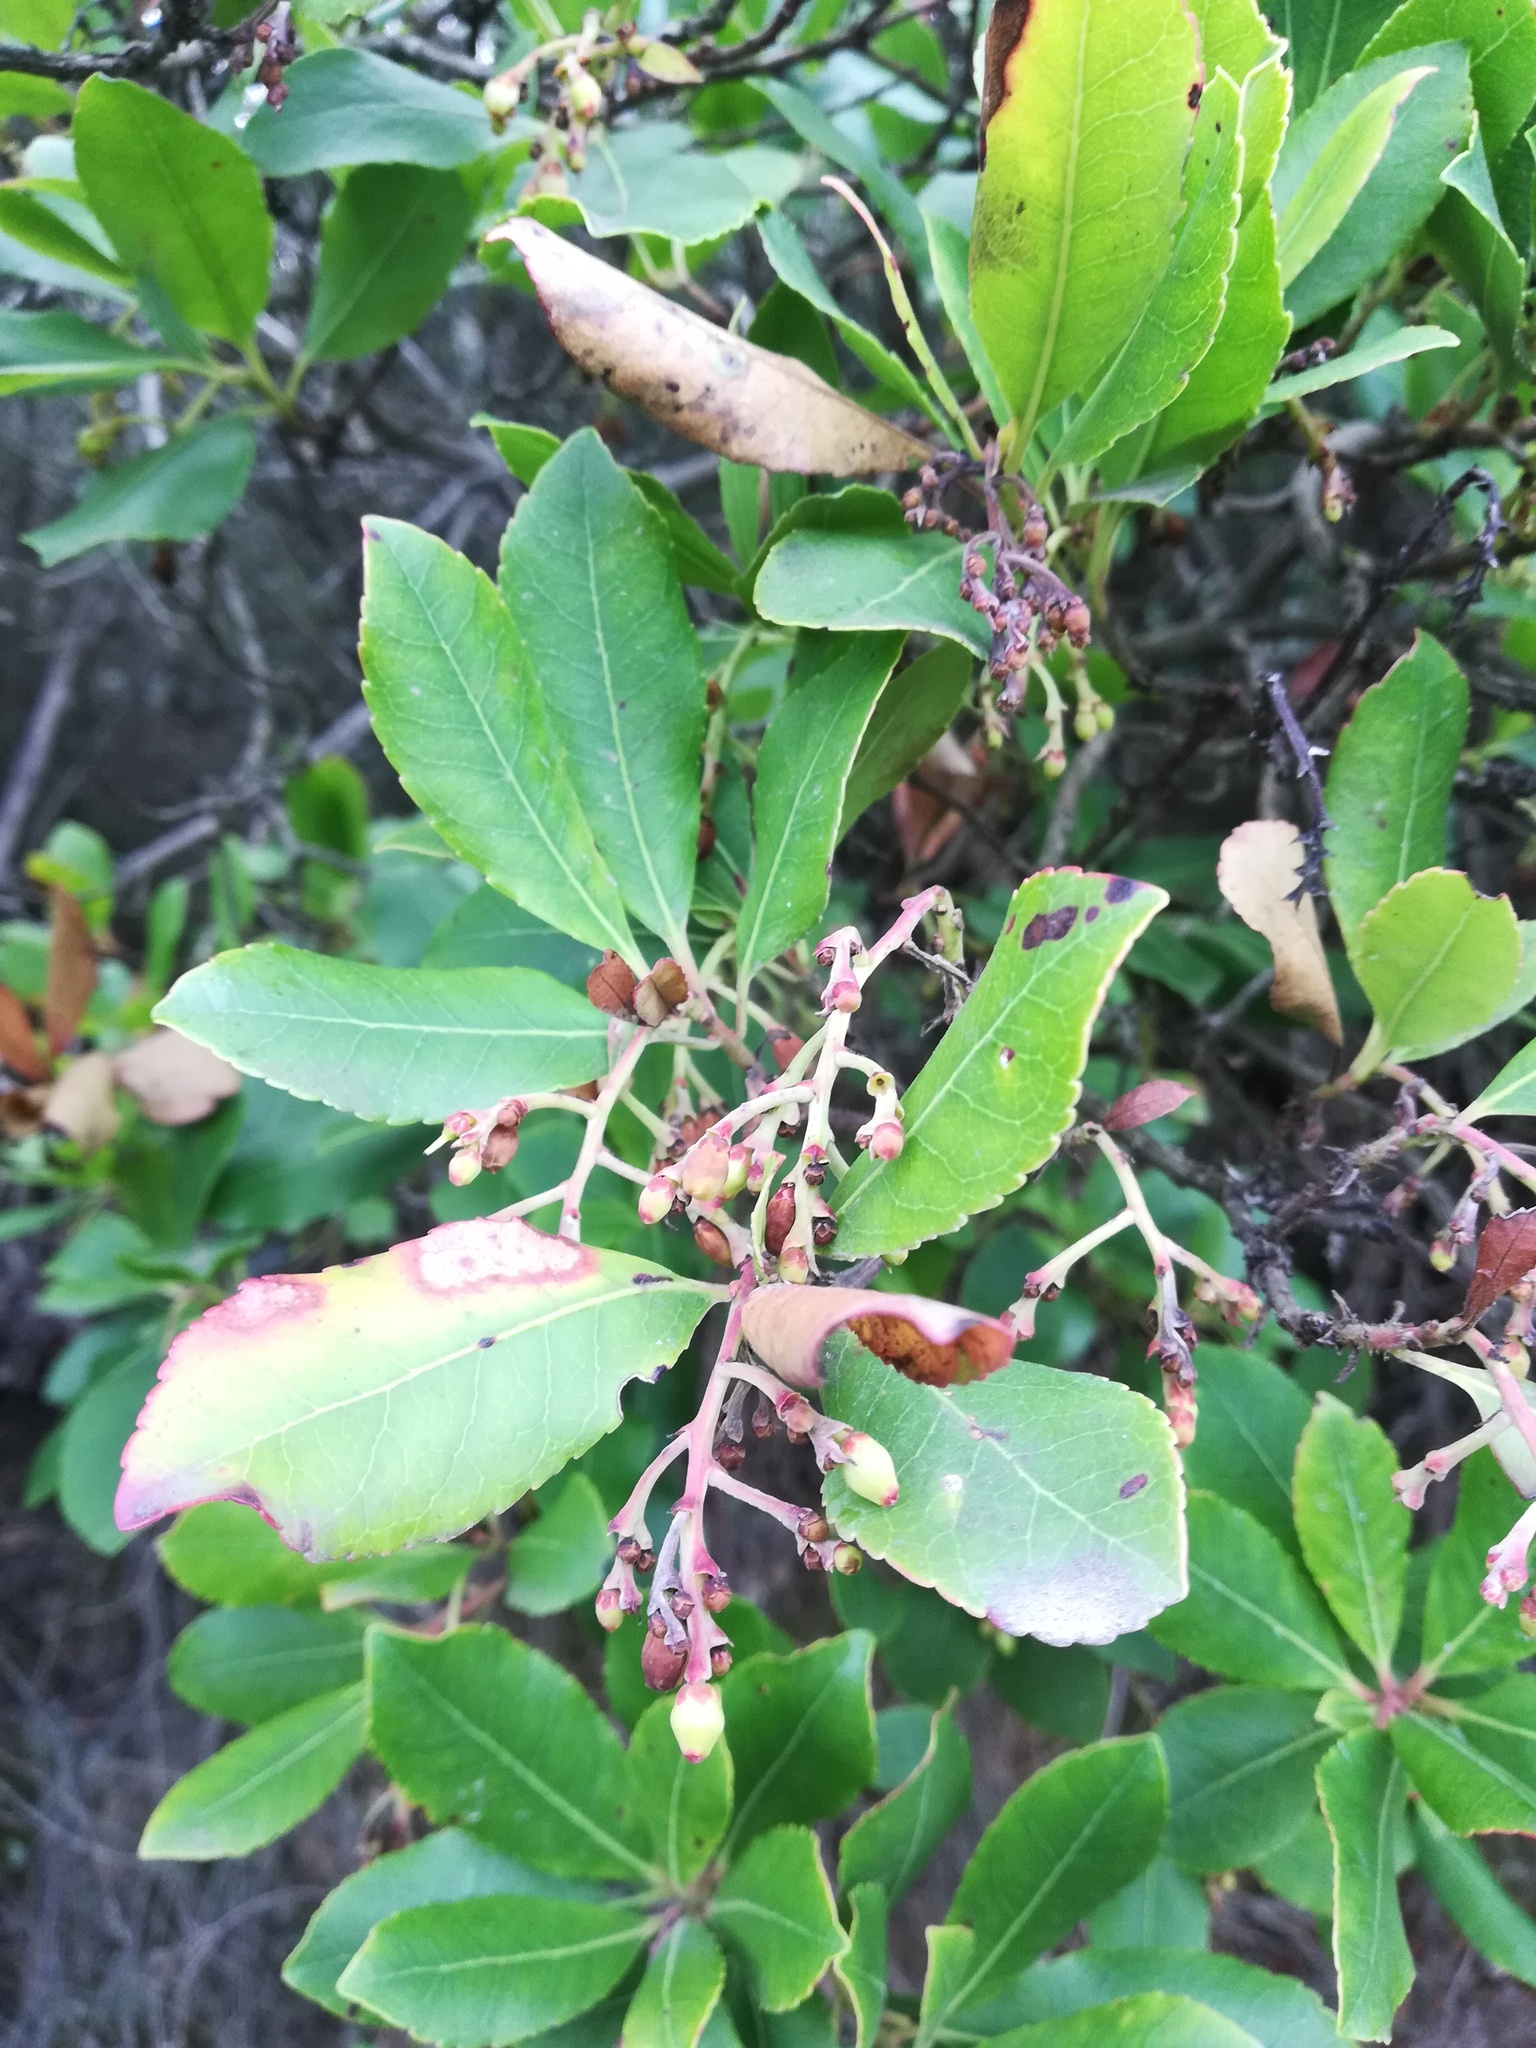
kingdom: Plantae
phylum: Tracheophyta
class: Magnoliopsida
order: Ericales
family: Ericaceae
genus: Arbutus
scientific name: Arbutus andrachne
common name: Greek strawberry tree
